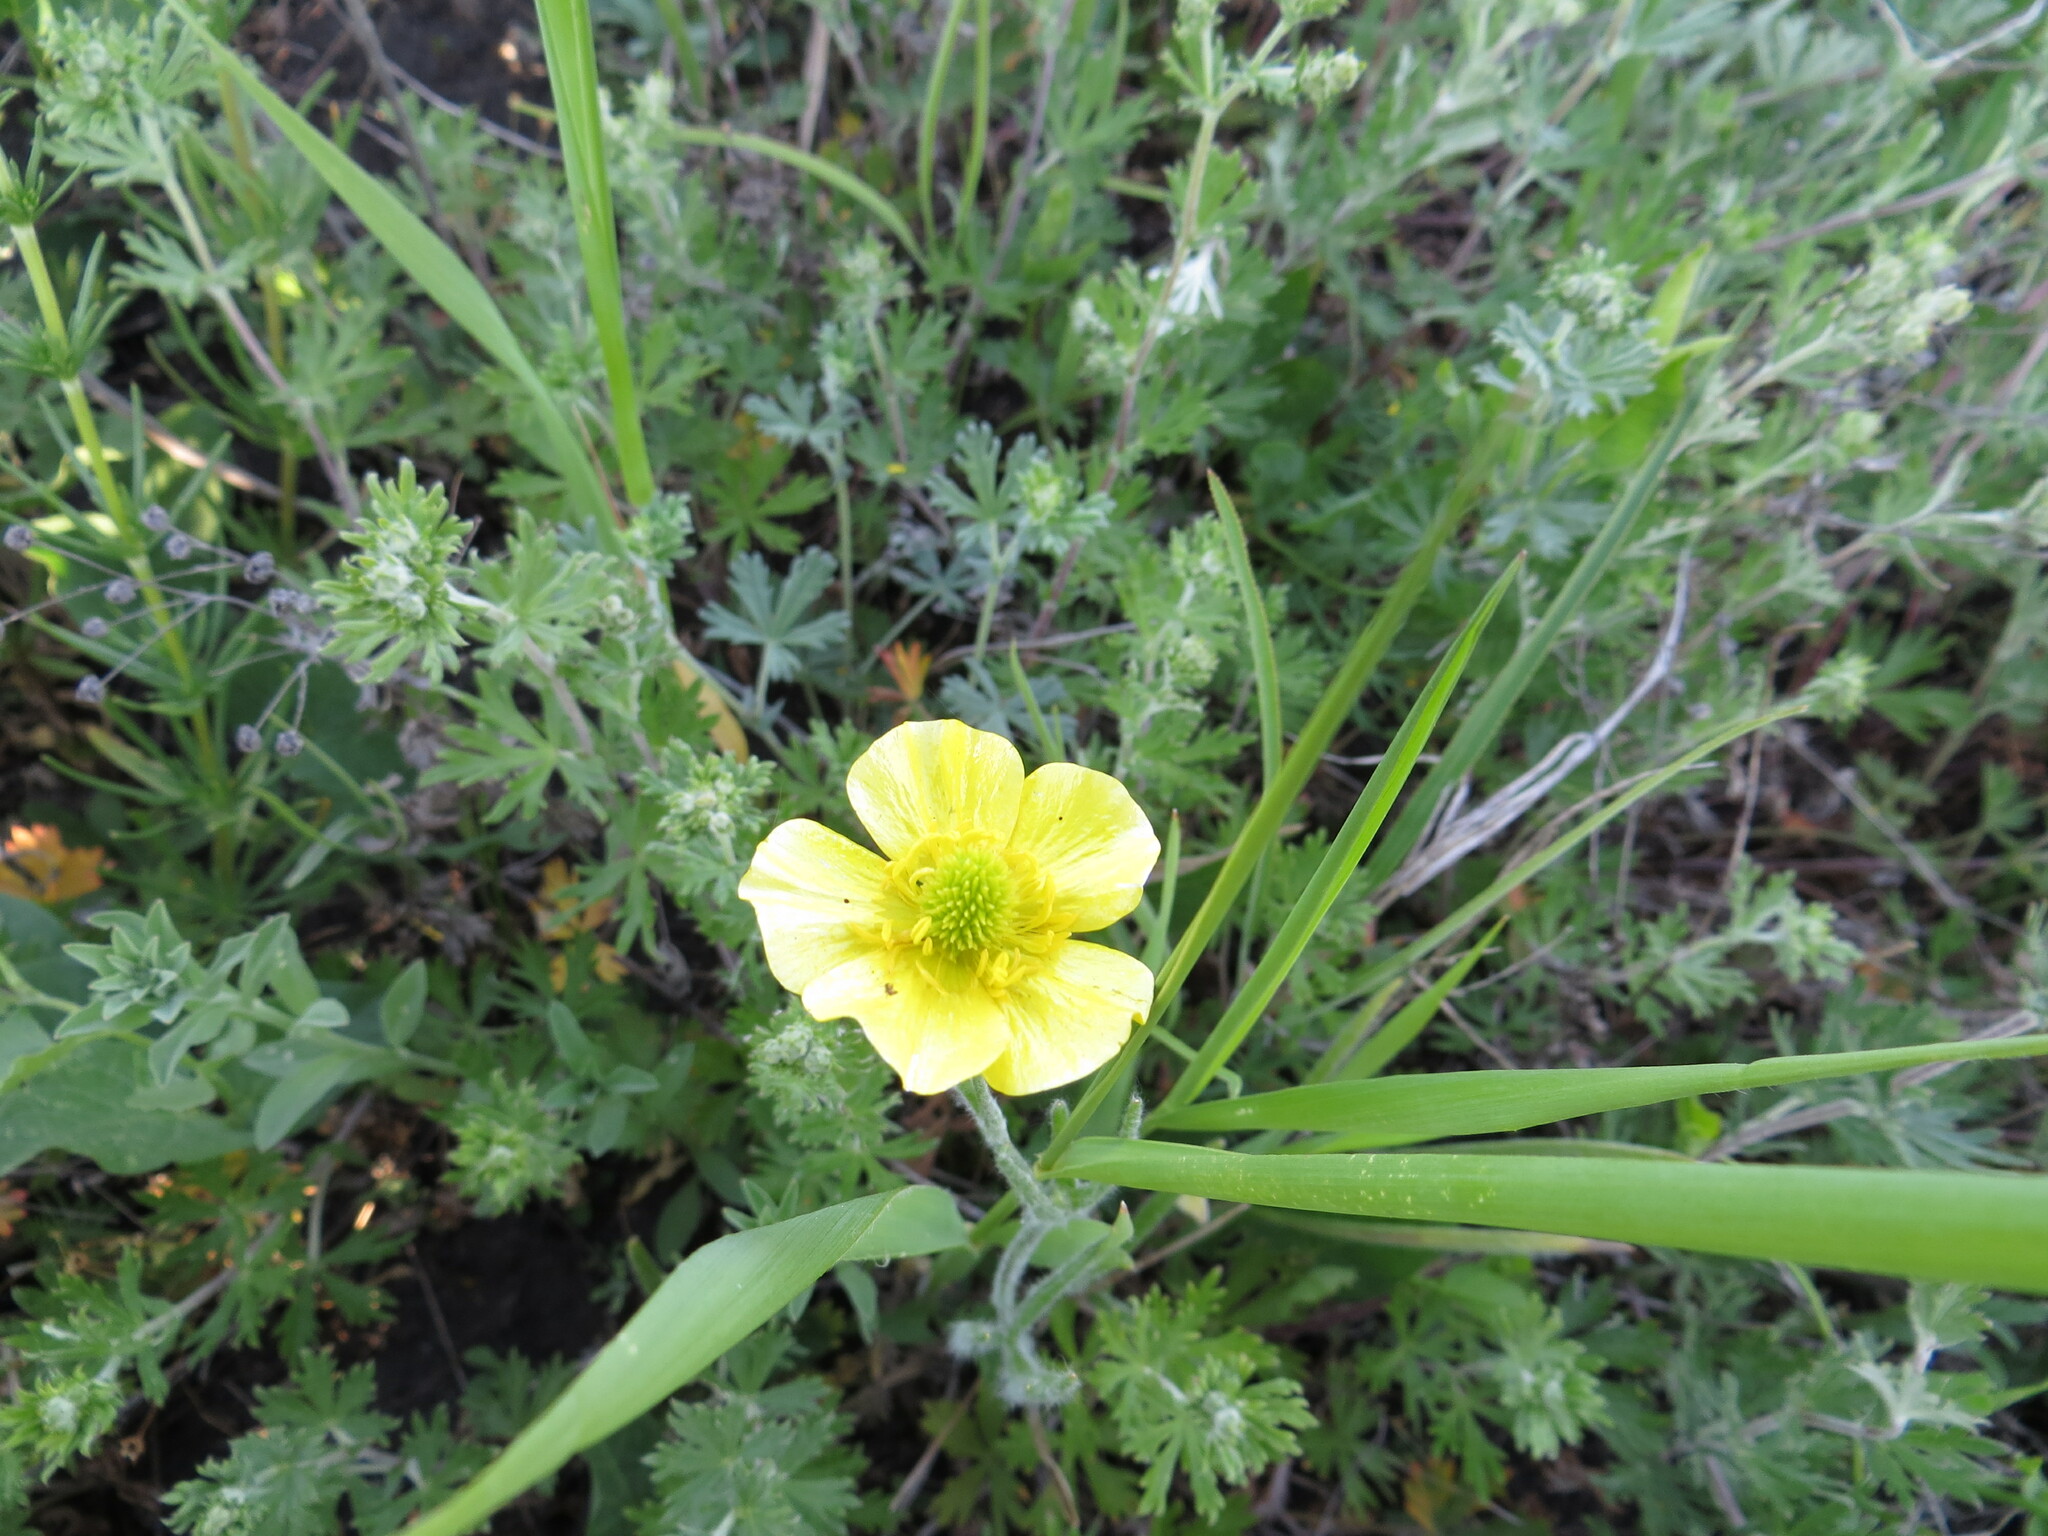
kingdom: Plantae
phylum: Tracheophyta
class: Magnoliopsida
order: Ranunculales
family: Ranunculaceae
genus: Ranunculus
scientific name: Ranunculus illyricus
